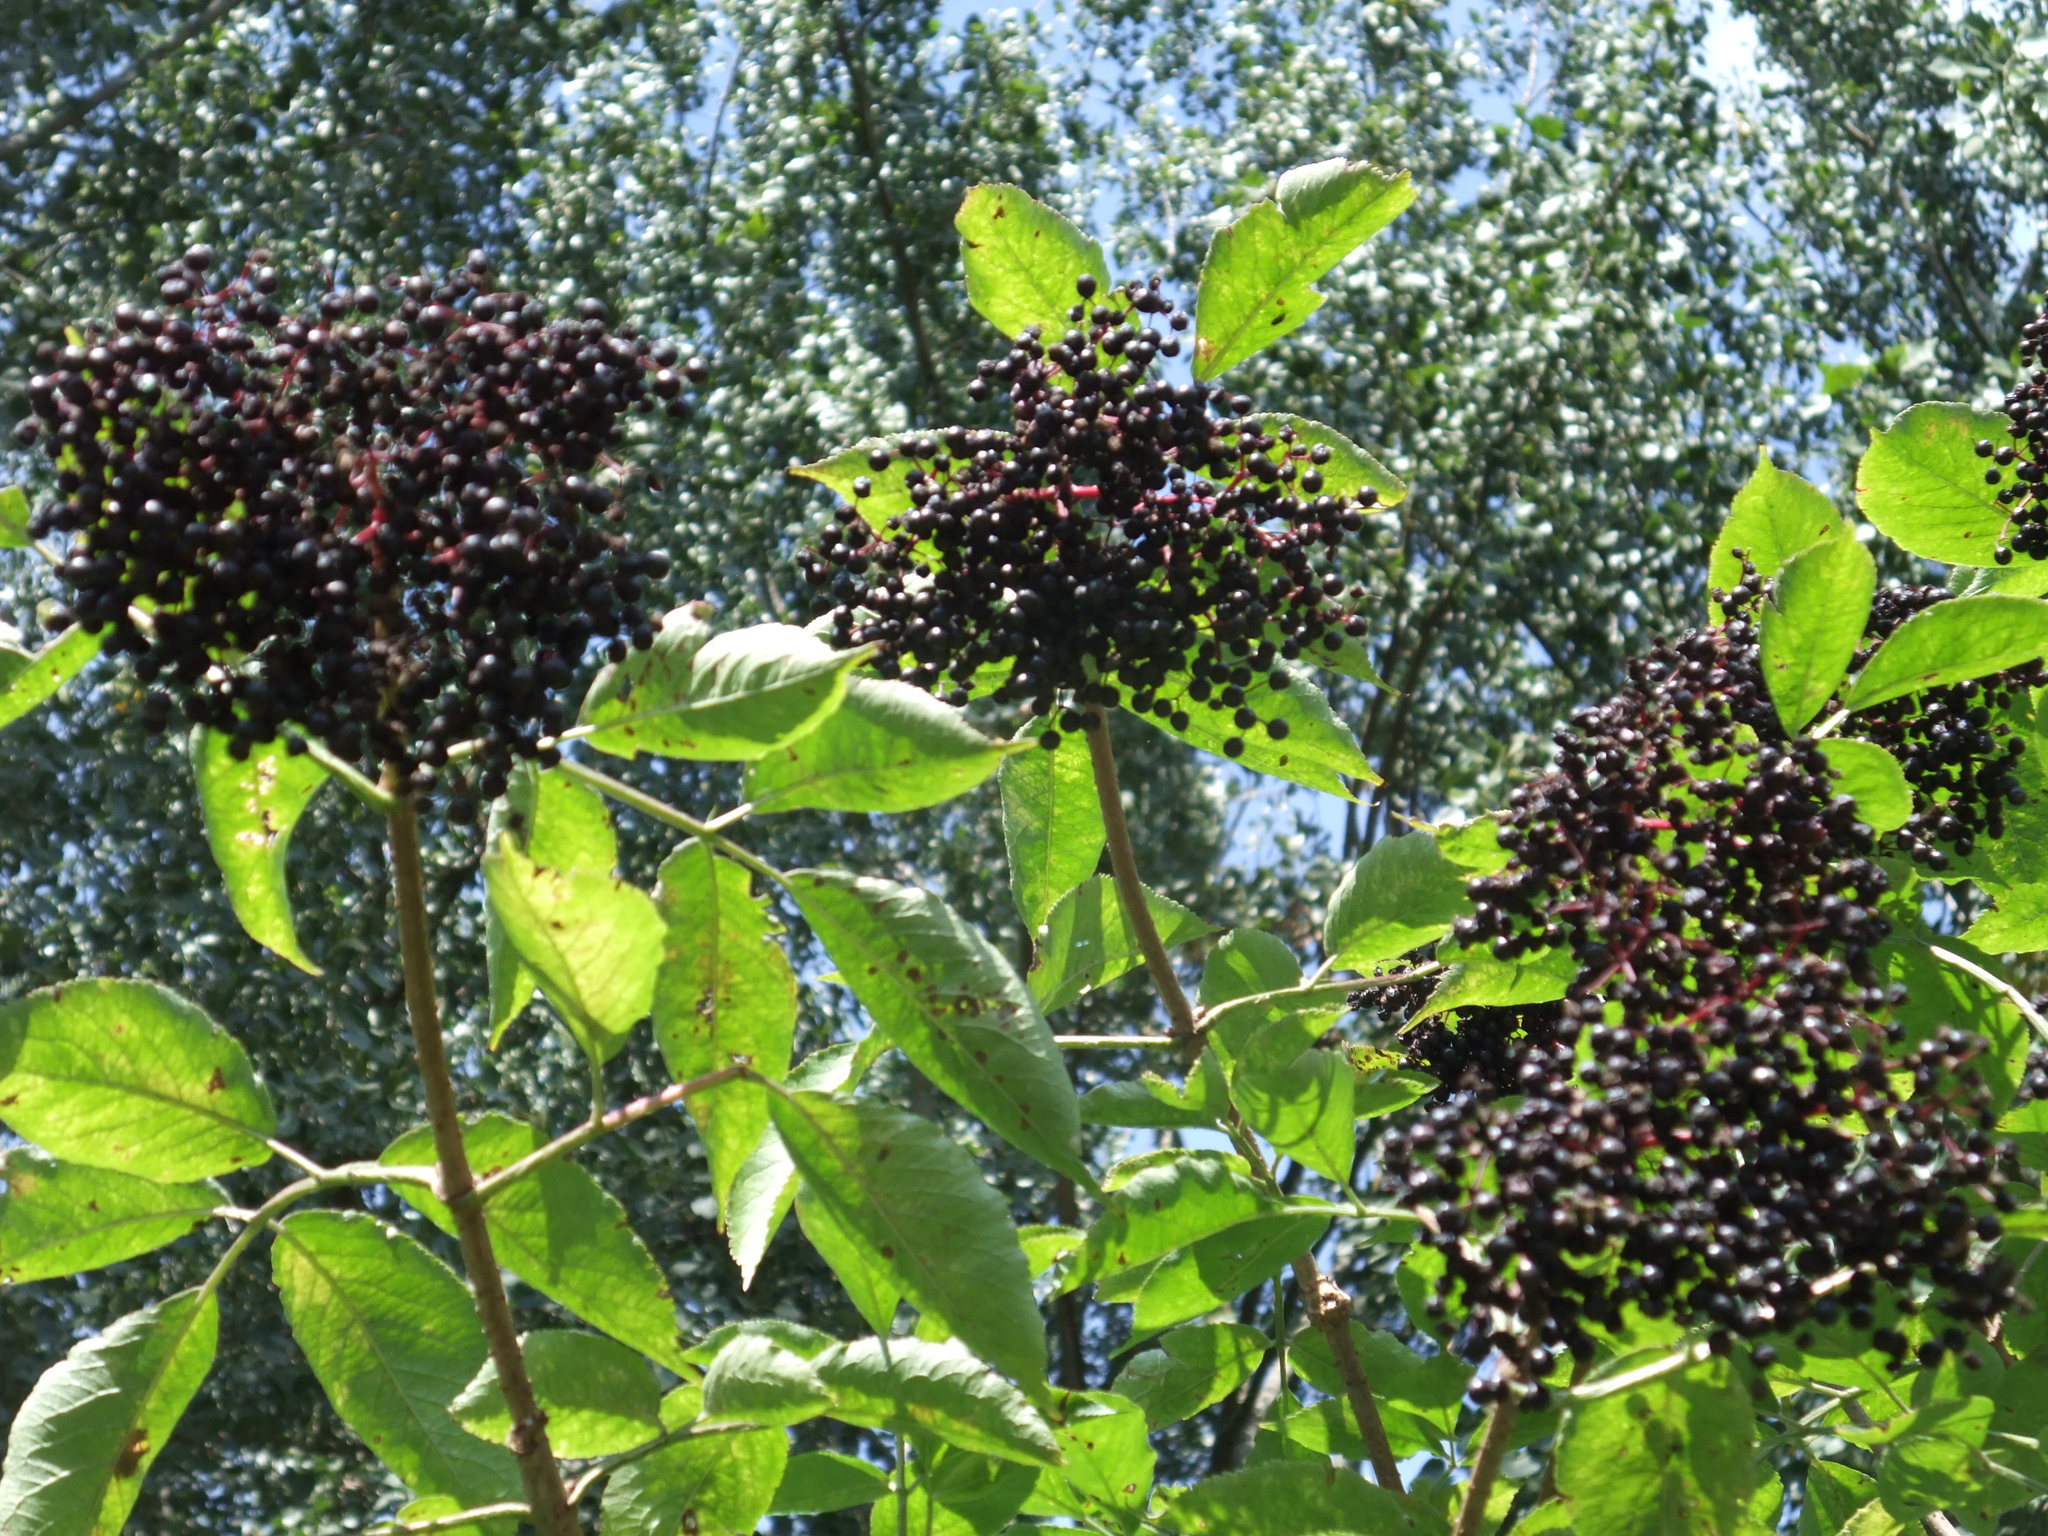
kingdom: Plantae
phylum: Tracheophyta
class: Magnoliopsida
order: Dipsacales
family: Viburnaceae
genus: Sambucus
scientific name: Sambucus nigra
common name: Elder
